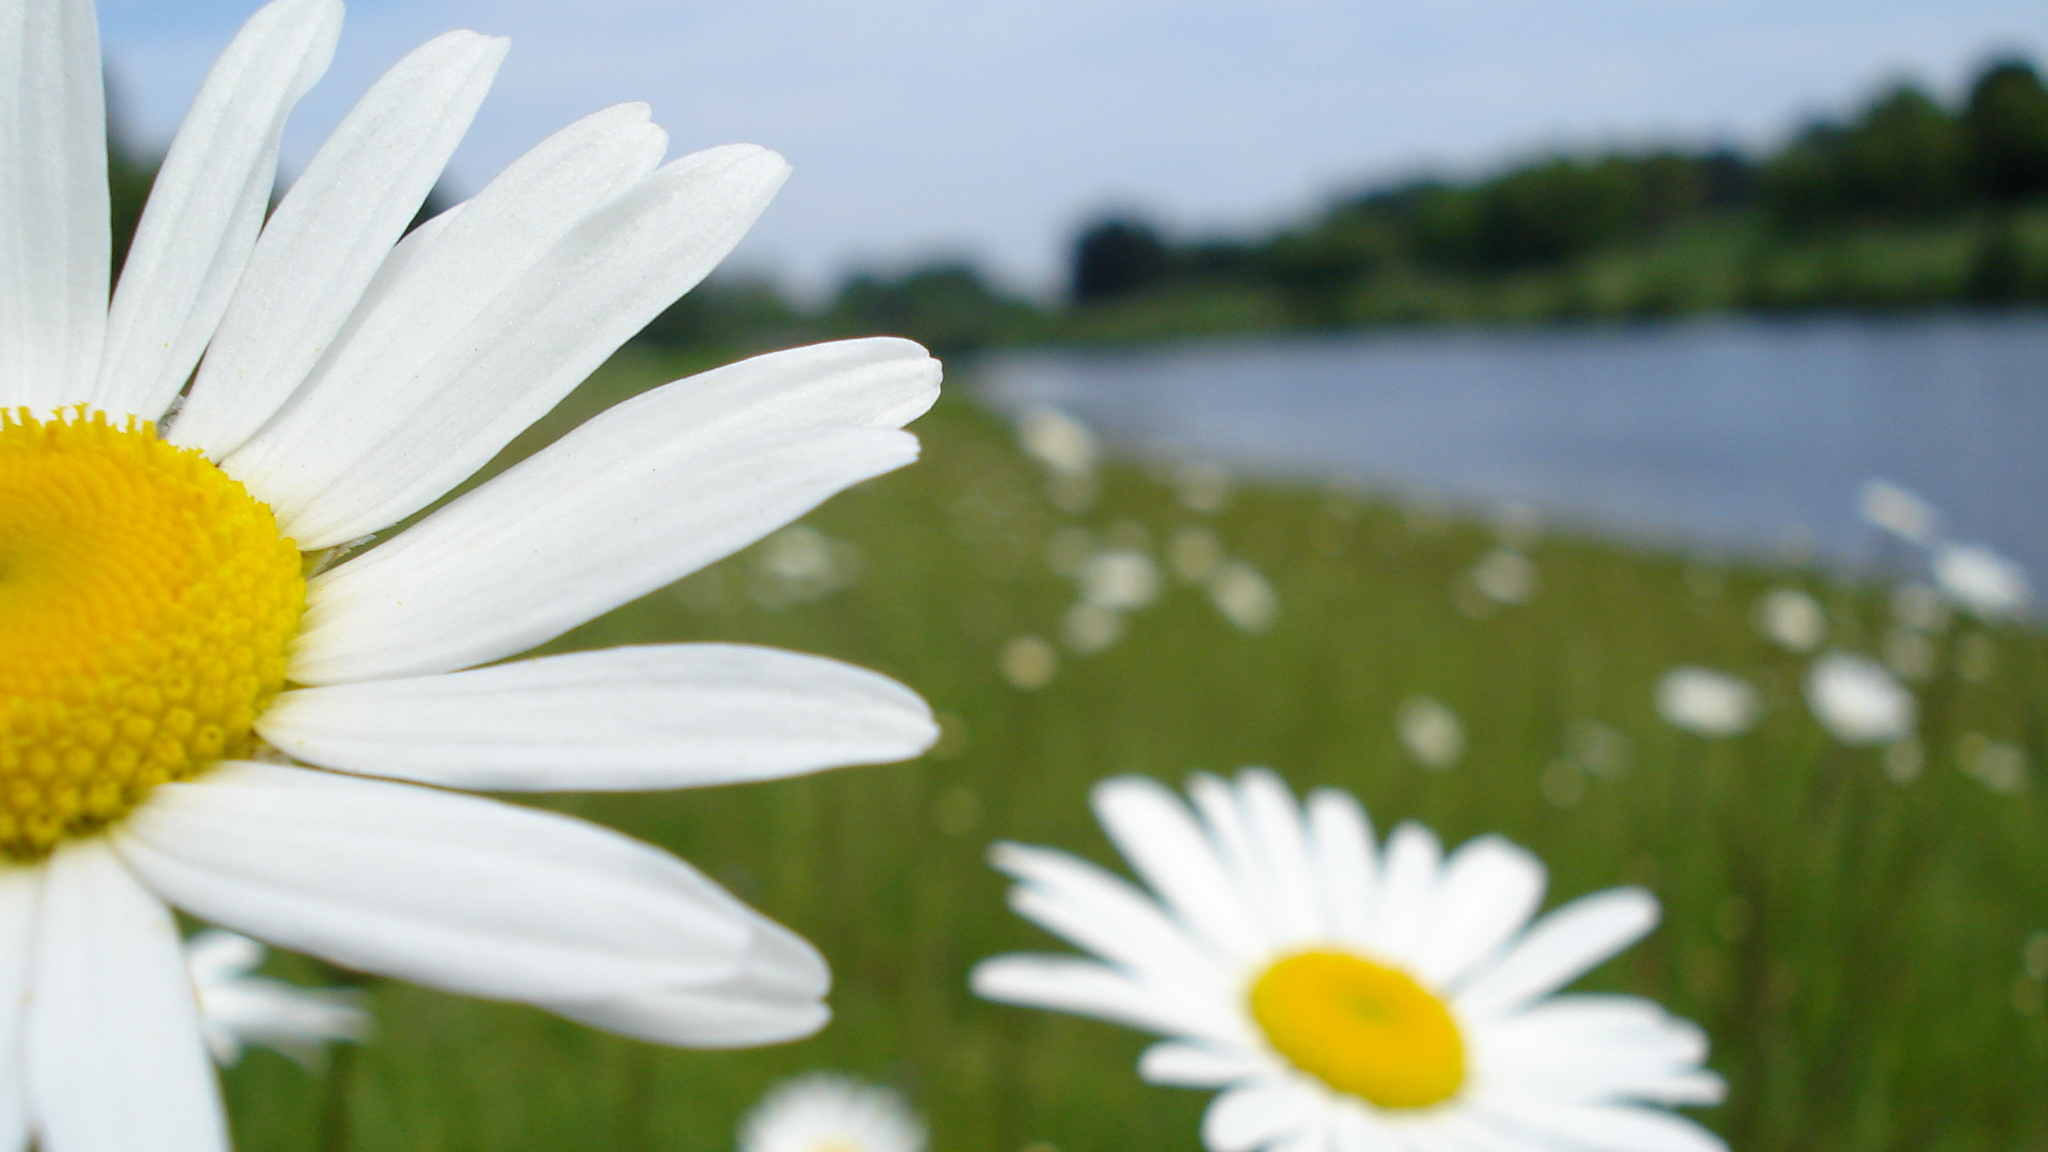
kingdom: Plantae
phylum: Tracheophyta
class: Magnoliopsida
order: Asterales
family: Asteraceae
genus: Leucanthemum
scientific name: Leucanthemum vulgare
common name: Oxeye daisy
